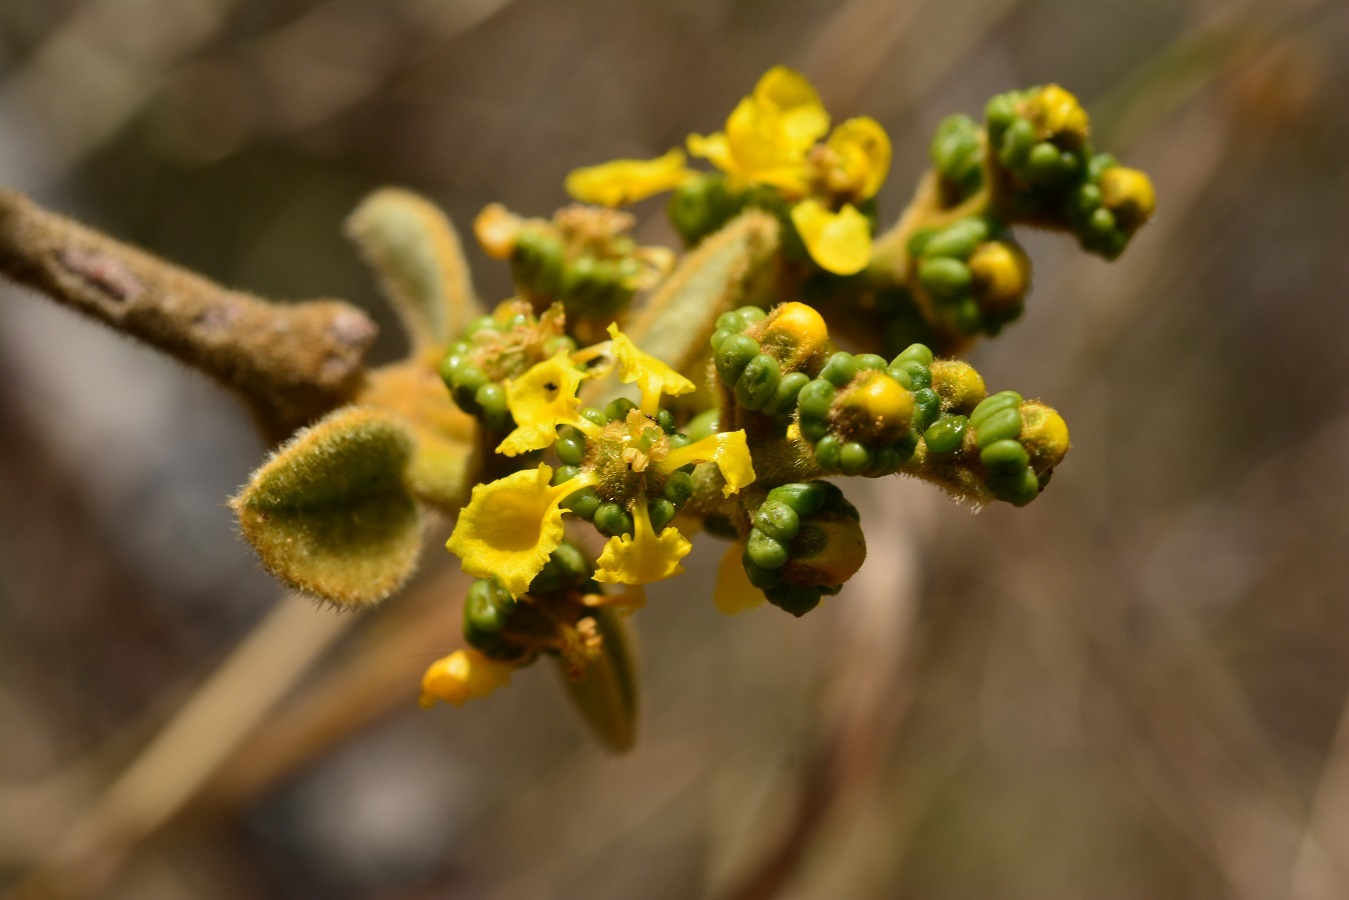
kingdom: Plantae
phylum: Tracheophyta
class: Magnoliopsida
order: Malpighiales
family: Malpighiaceae
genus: Bunchosia
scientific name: Bunchosia montana
